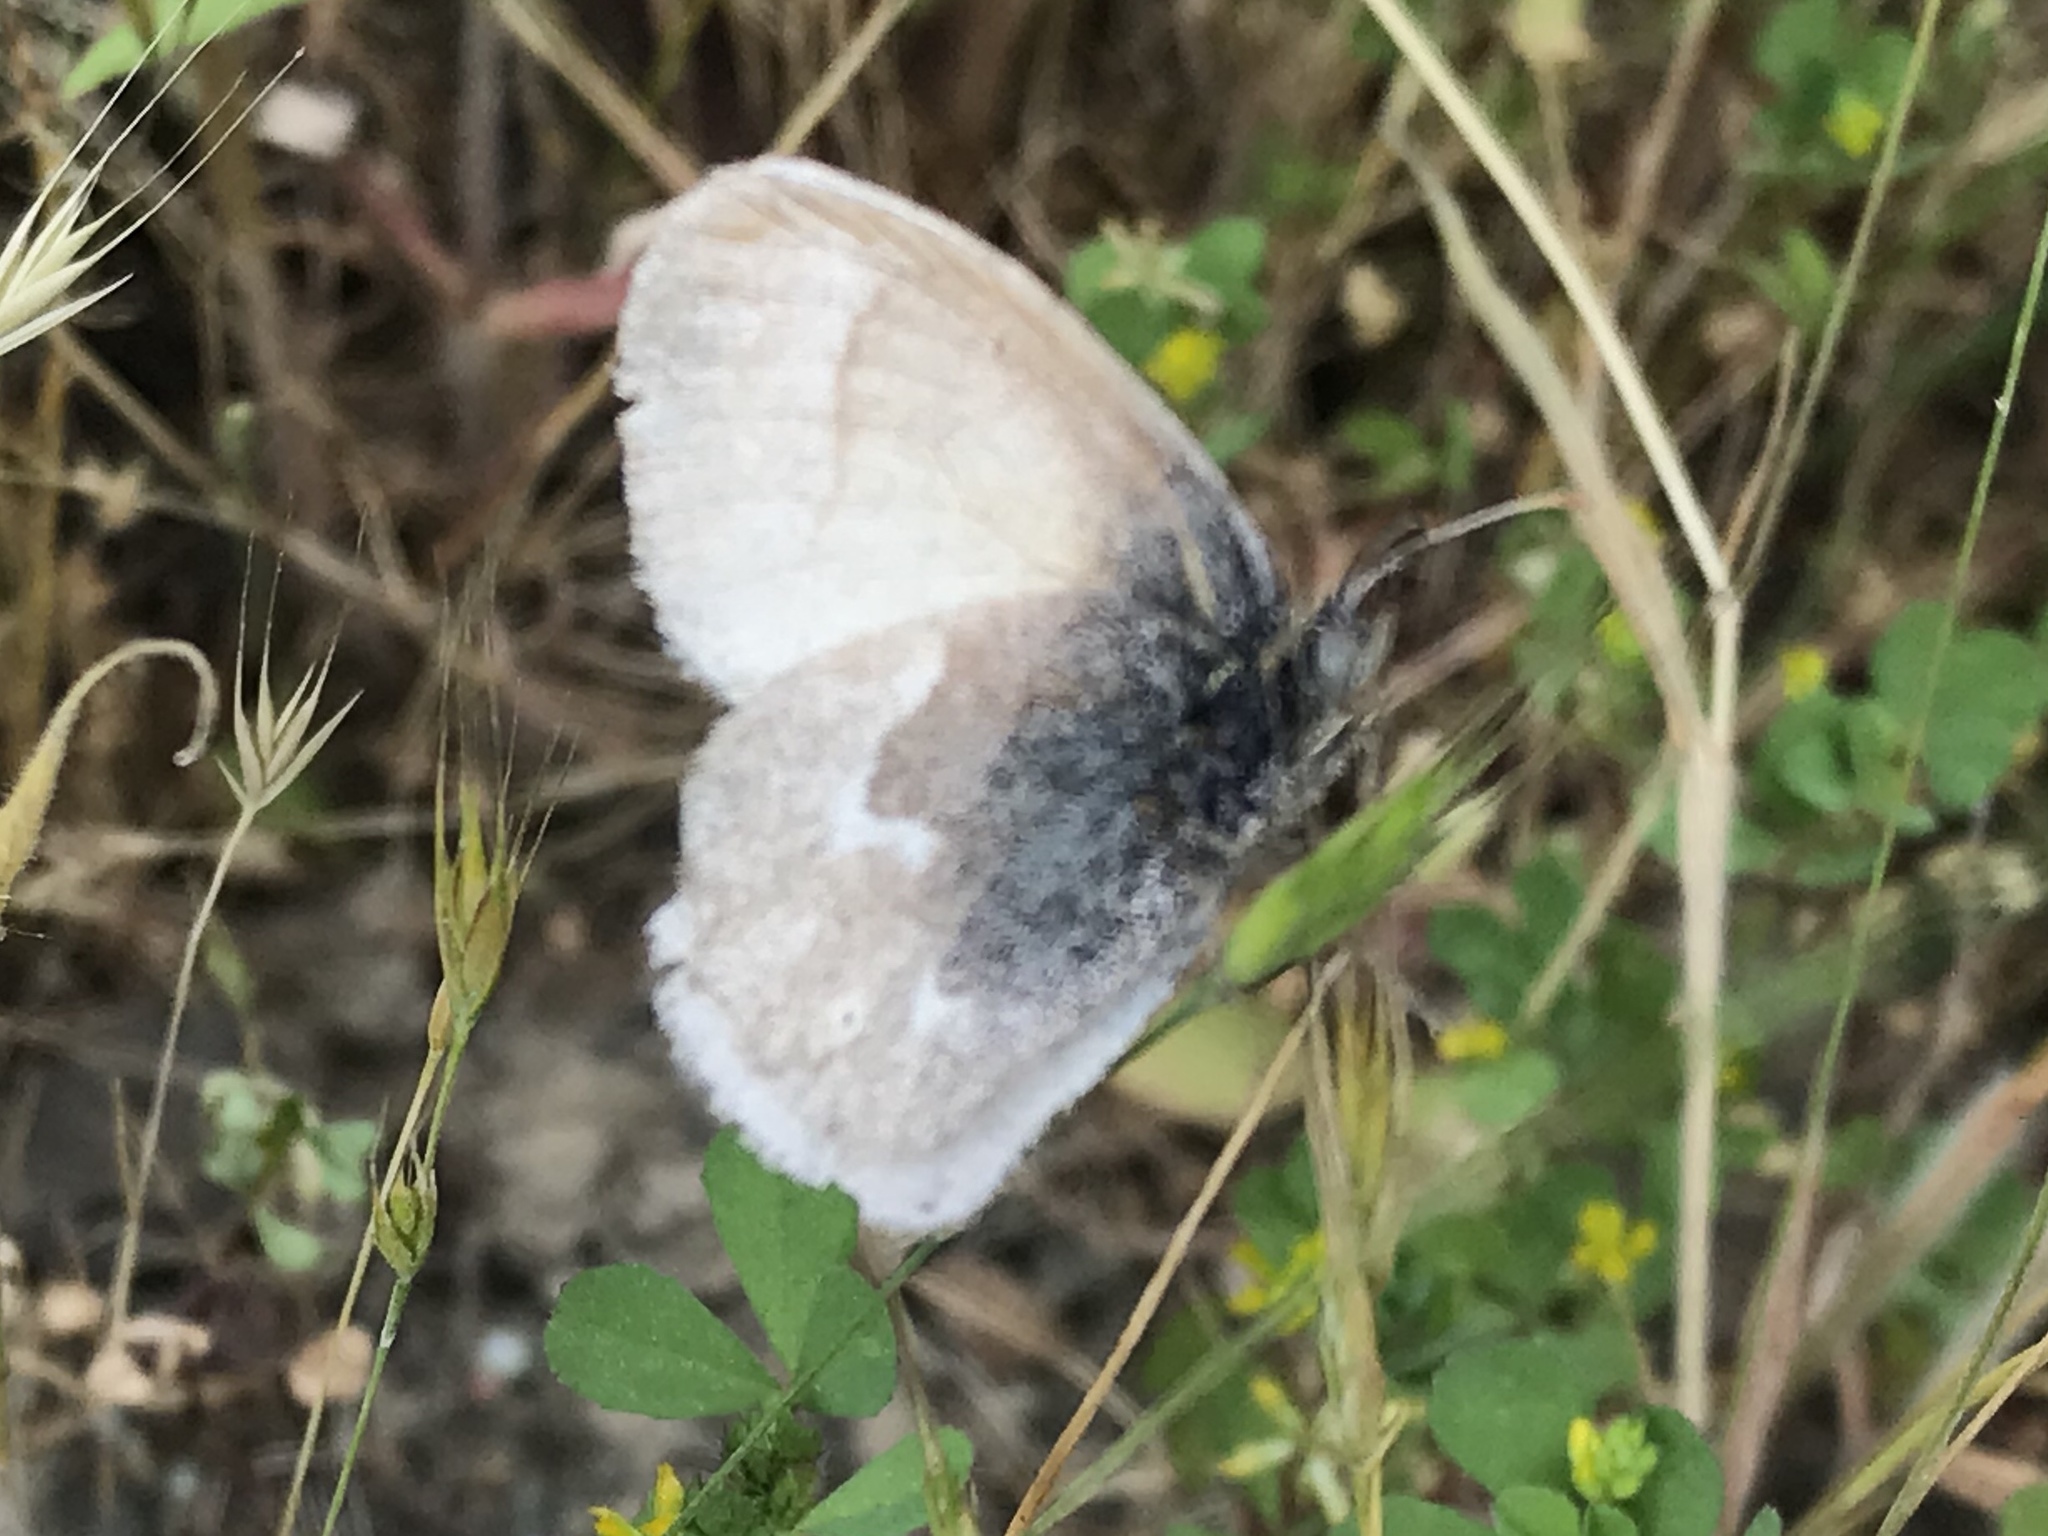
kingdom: Animalia
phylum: Arthropoda
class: Insecta
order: Lepidoptera
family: Nymphalidae
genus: Coenonympha
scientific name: Coenonympha california
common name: Common ringlet
